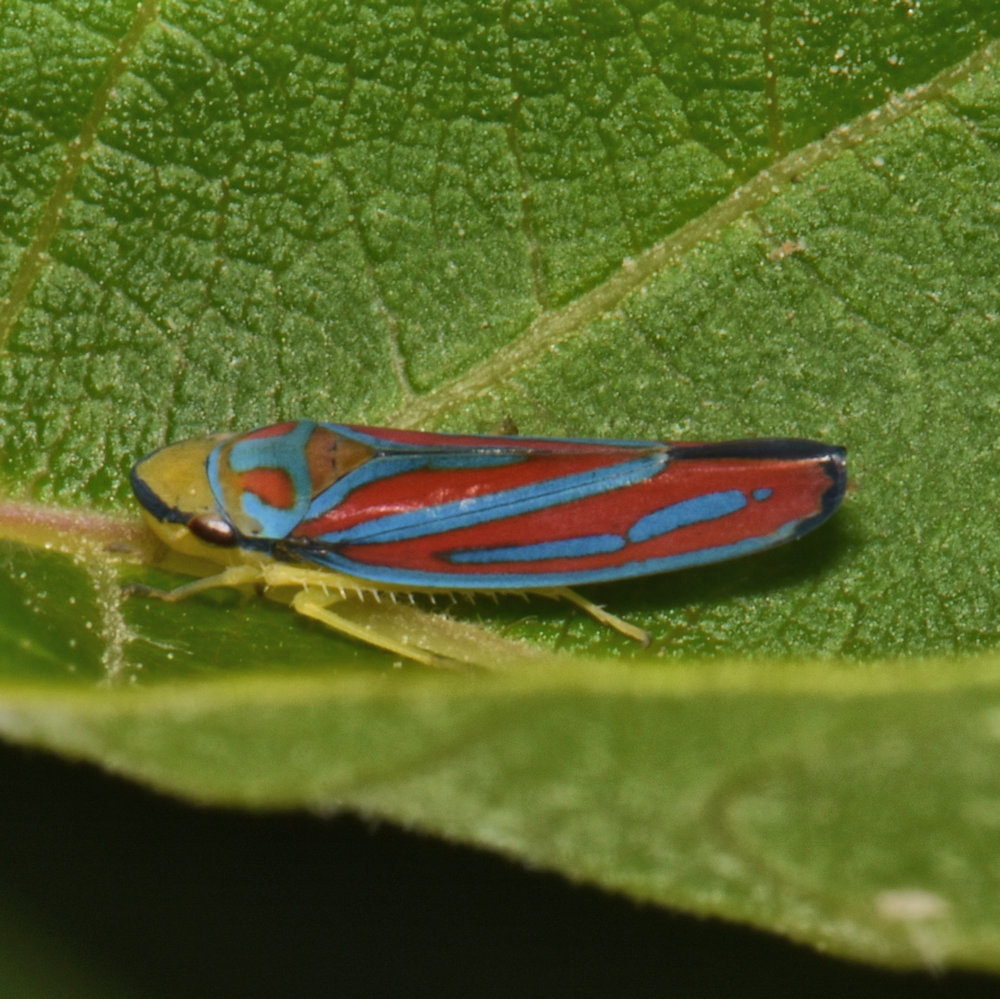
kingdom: Animalia
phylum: Arthropoda
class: Insecta
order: Hemiptera
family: Cicadellidae
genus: Graphocephala
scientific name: Graphocephala coccinea
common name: Candy-striped leafhopper
